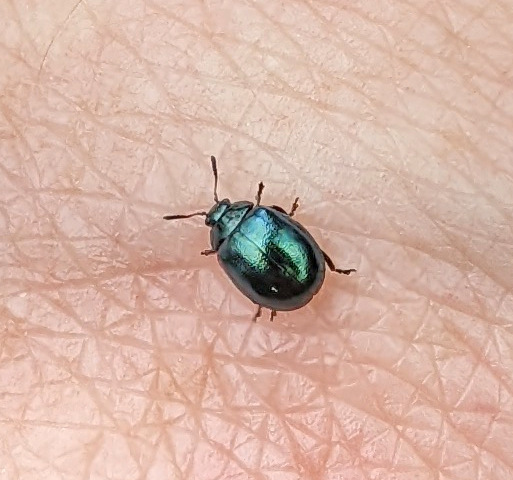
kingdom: Animalia
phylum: Arthropoda
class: Insecta
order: Coleoptera
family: Chrysomelidae
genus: Plagiodera
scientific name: Plagiodera versicolora
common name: Imported willow leaf beetle
